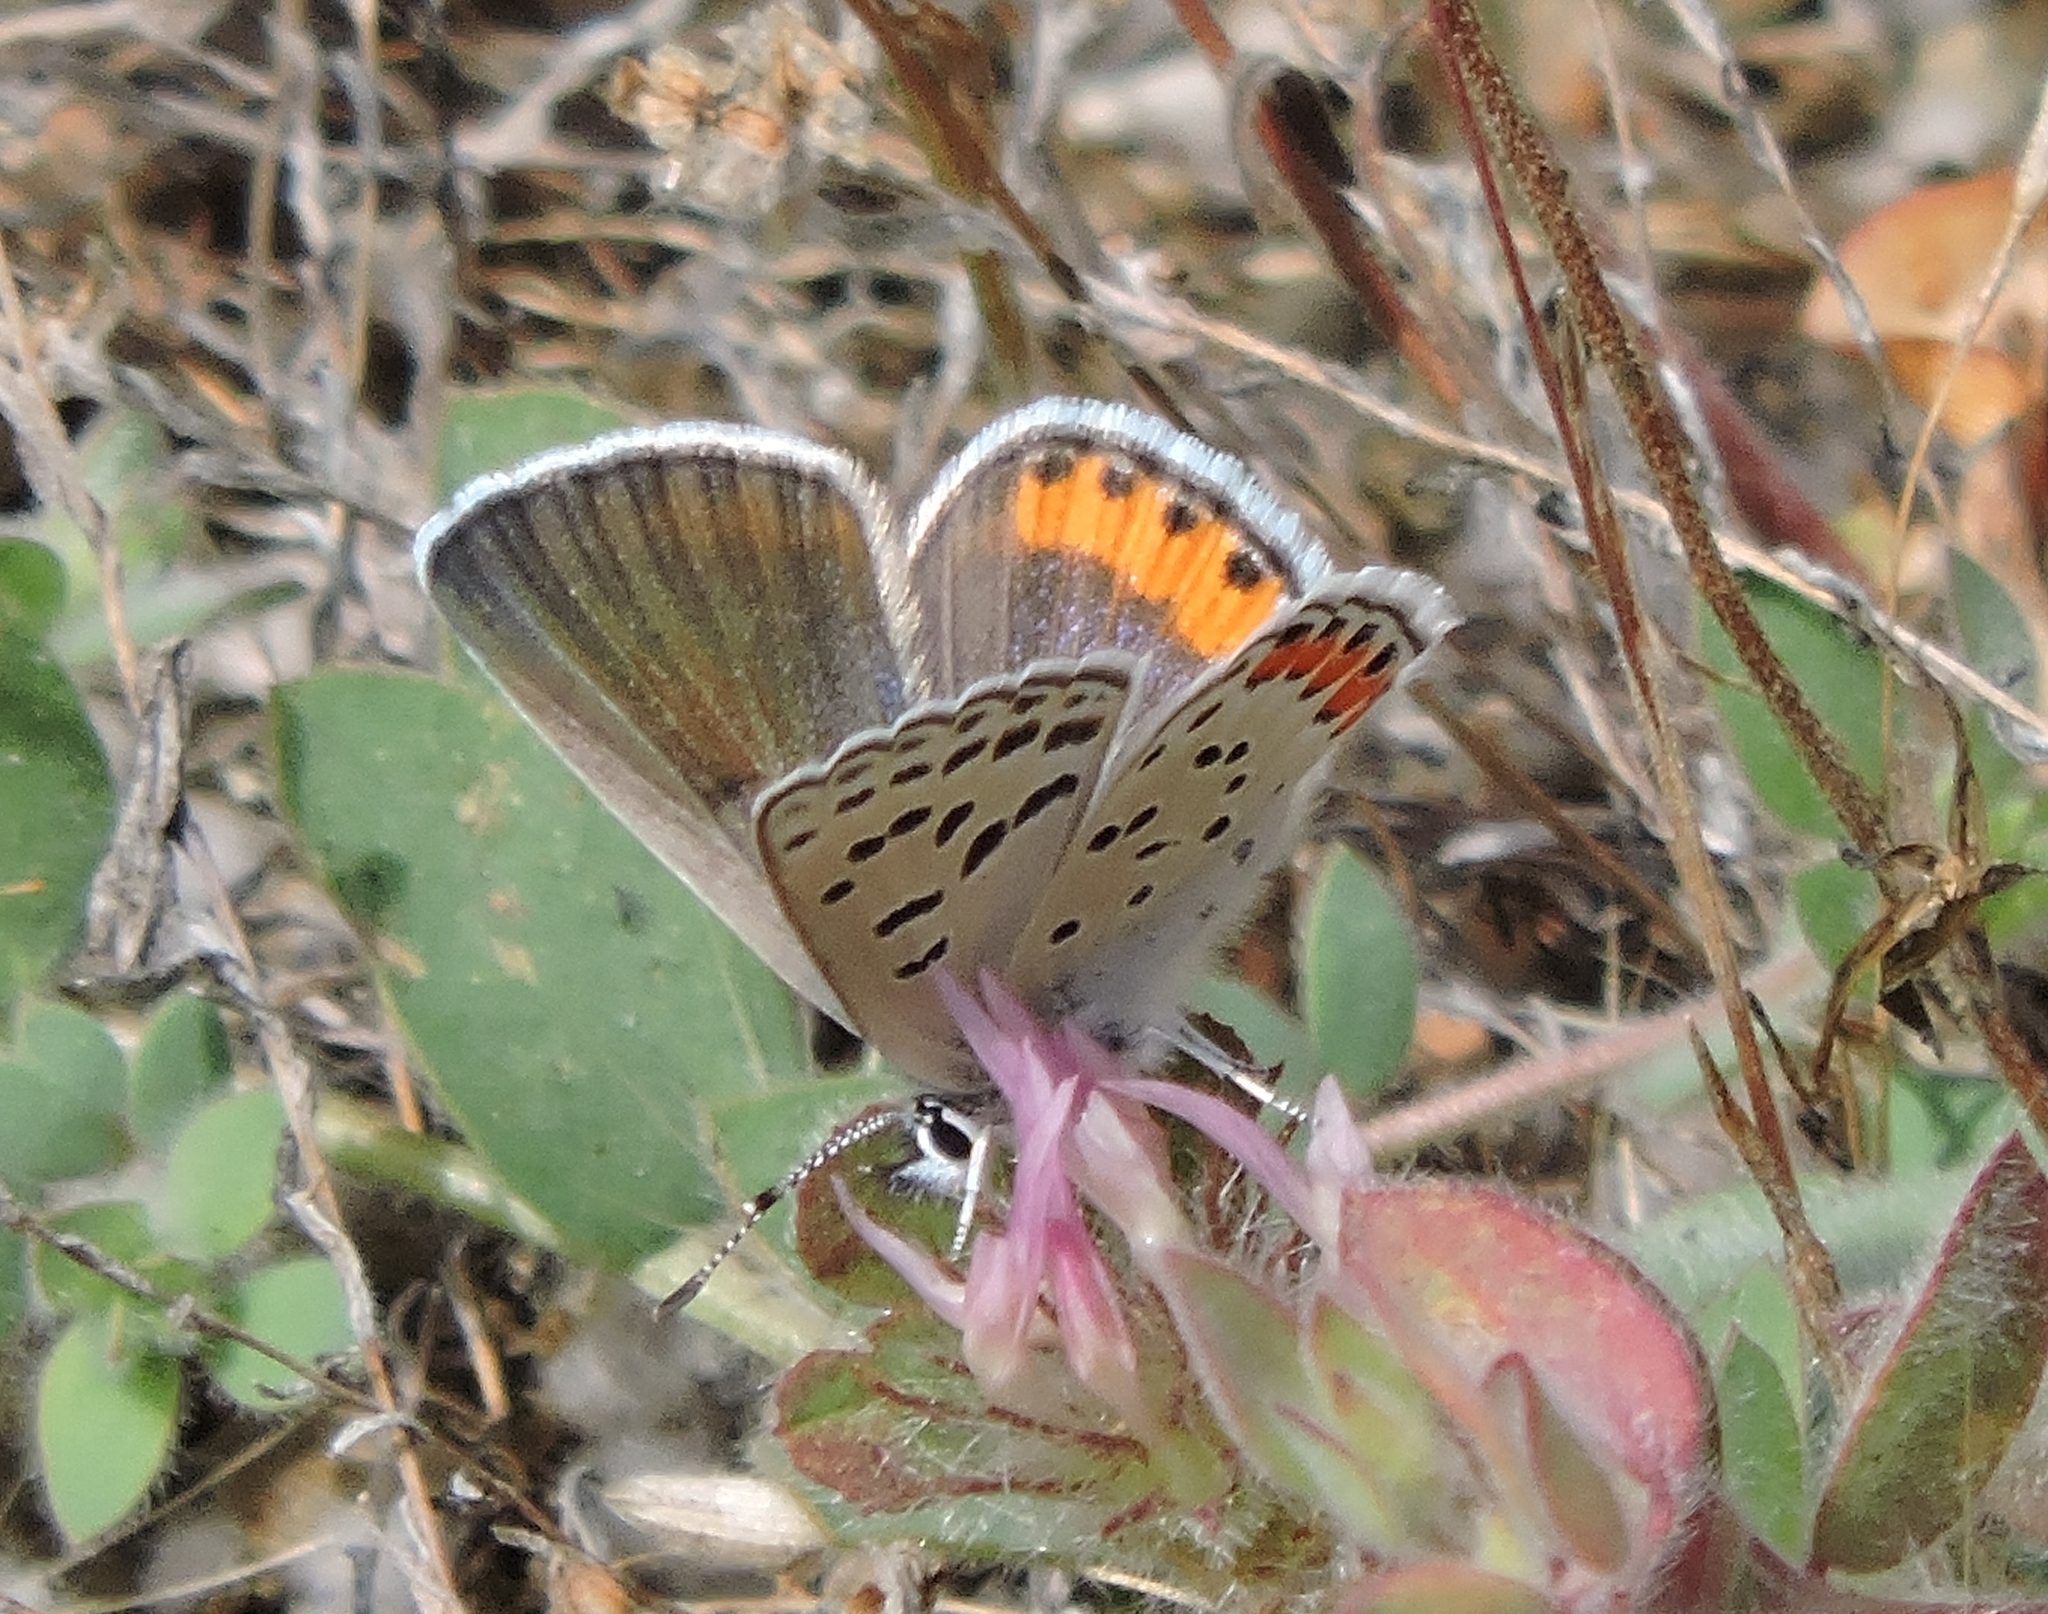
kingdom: Animalia
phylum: Arthropoda
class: Insecta
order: Lepidoptera
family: Lycaenidae
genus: Icaricia
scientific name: Icaricia acmon
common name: Acmon blue
